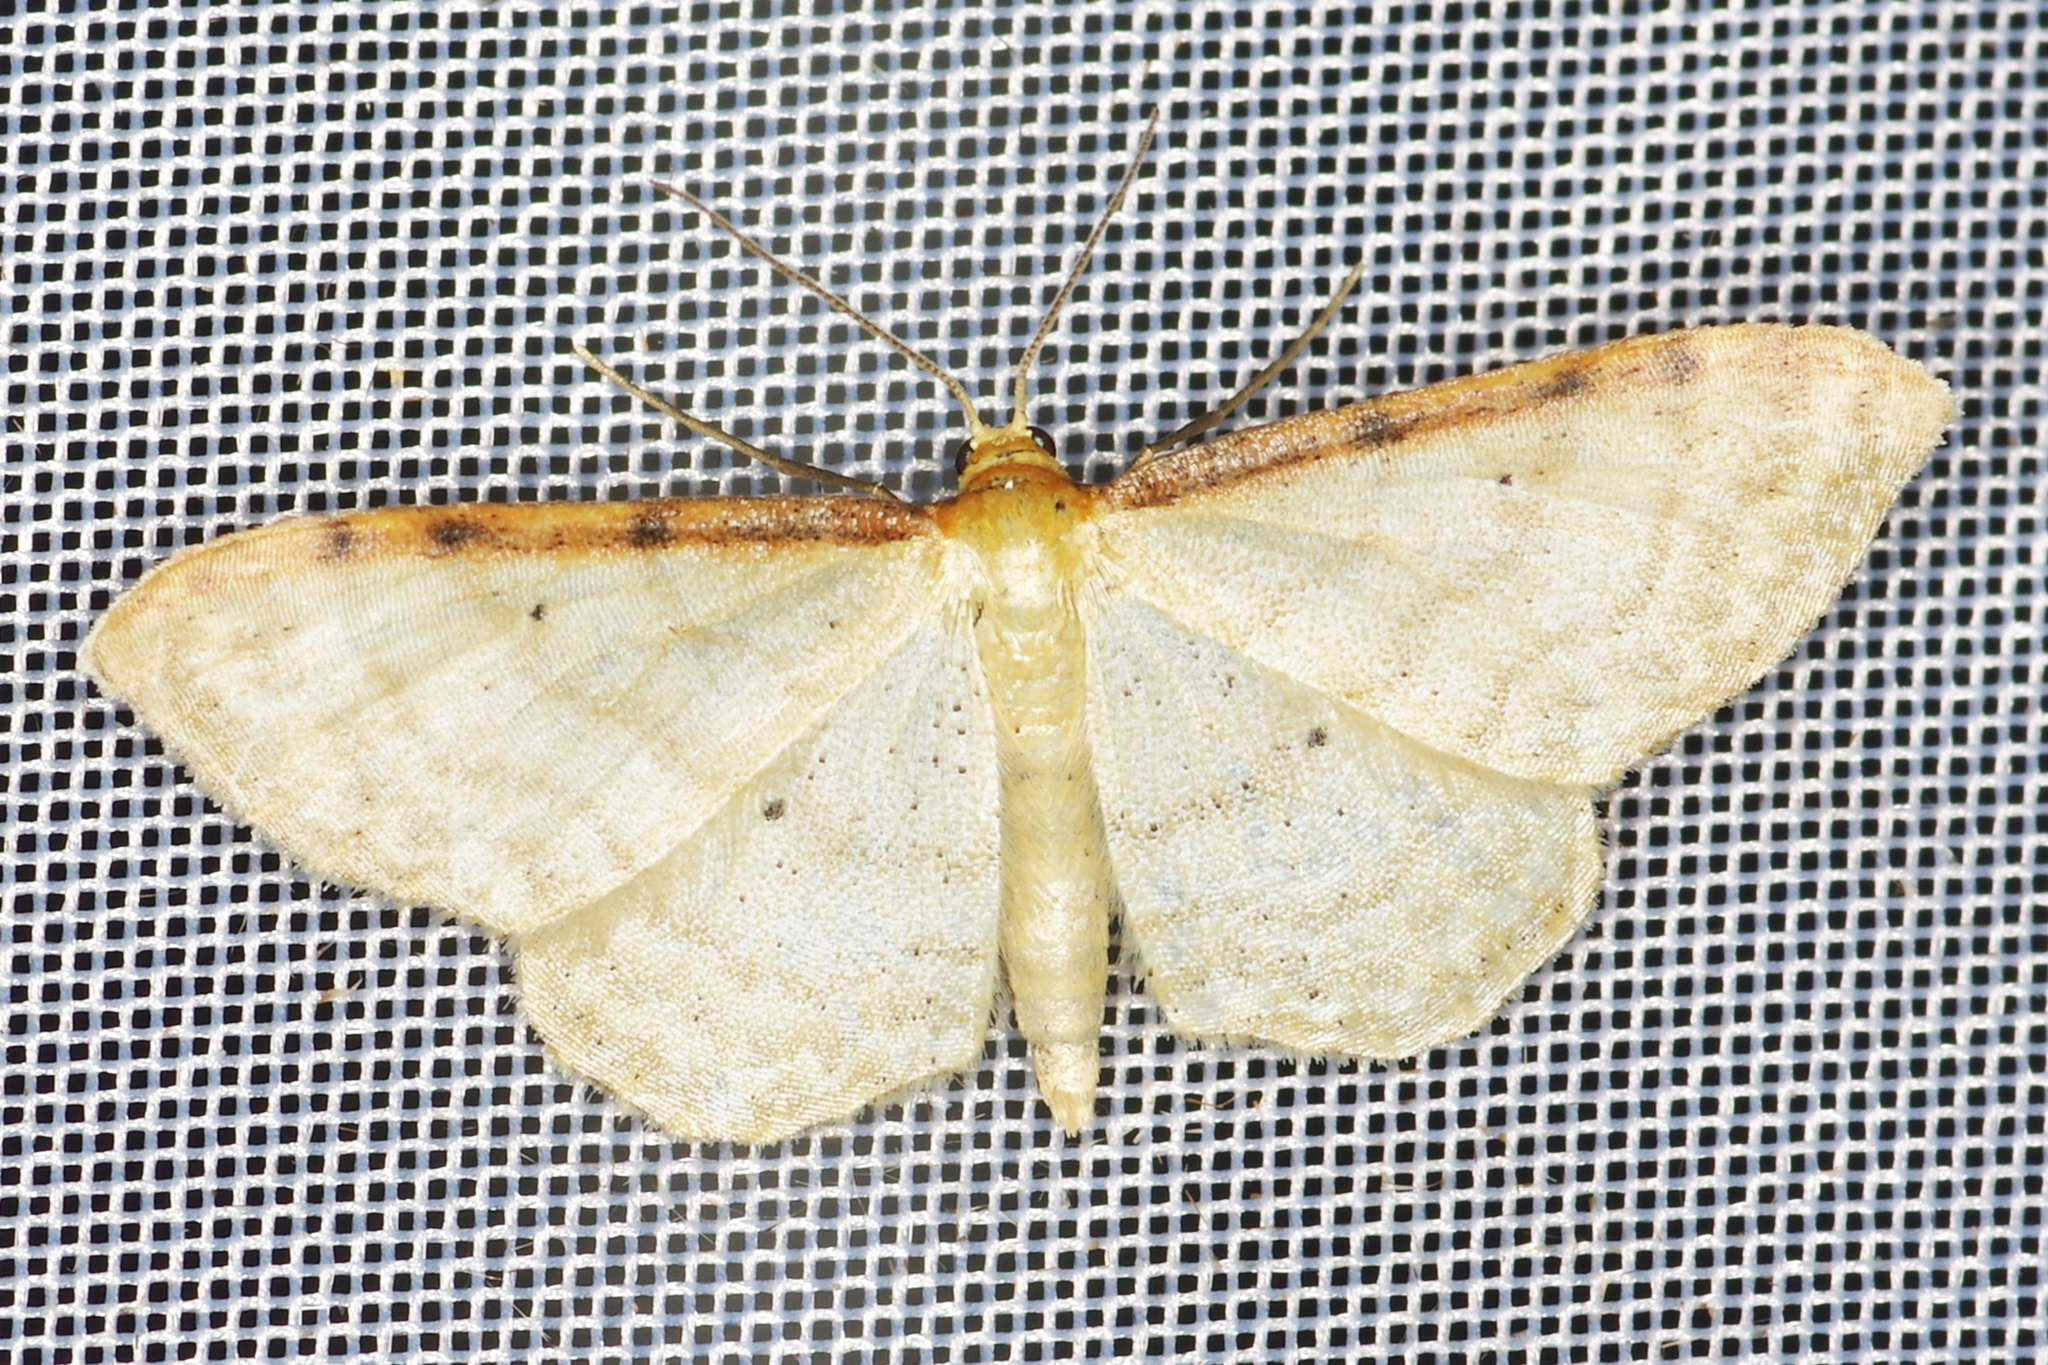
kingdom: Animalia
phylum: Arthropoda
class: Insecta
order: Lepidoptera
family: Geometridae
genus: Idaea
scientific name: Idaea humiliata
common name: Isle of wight wave
